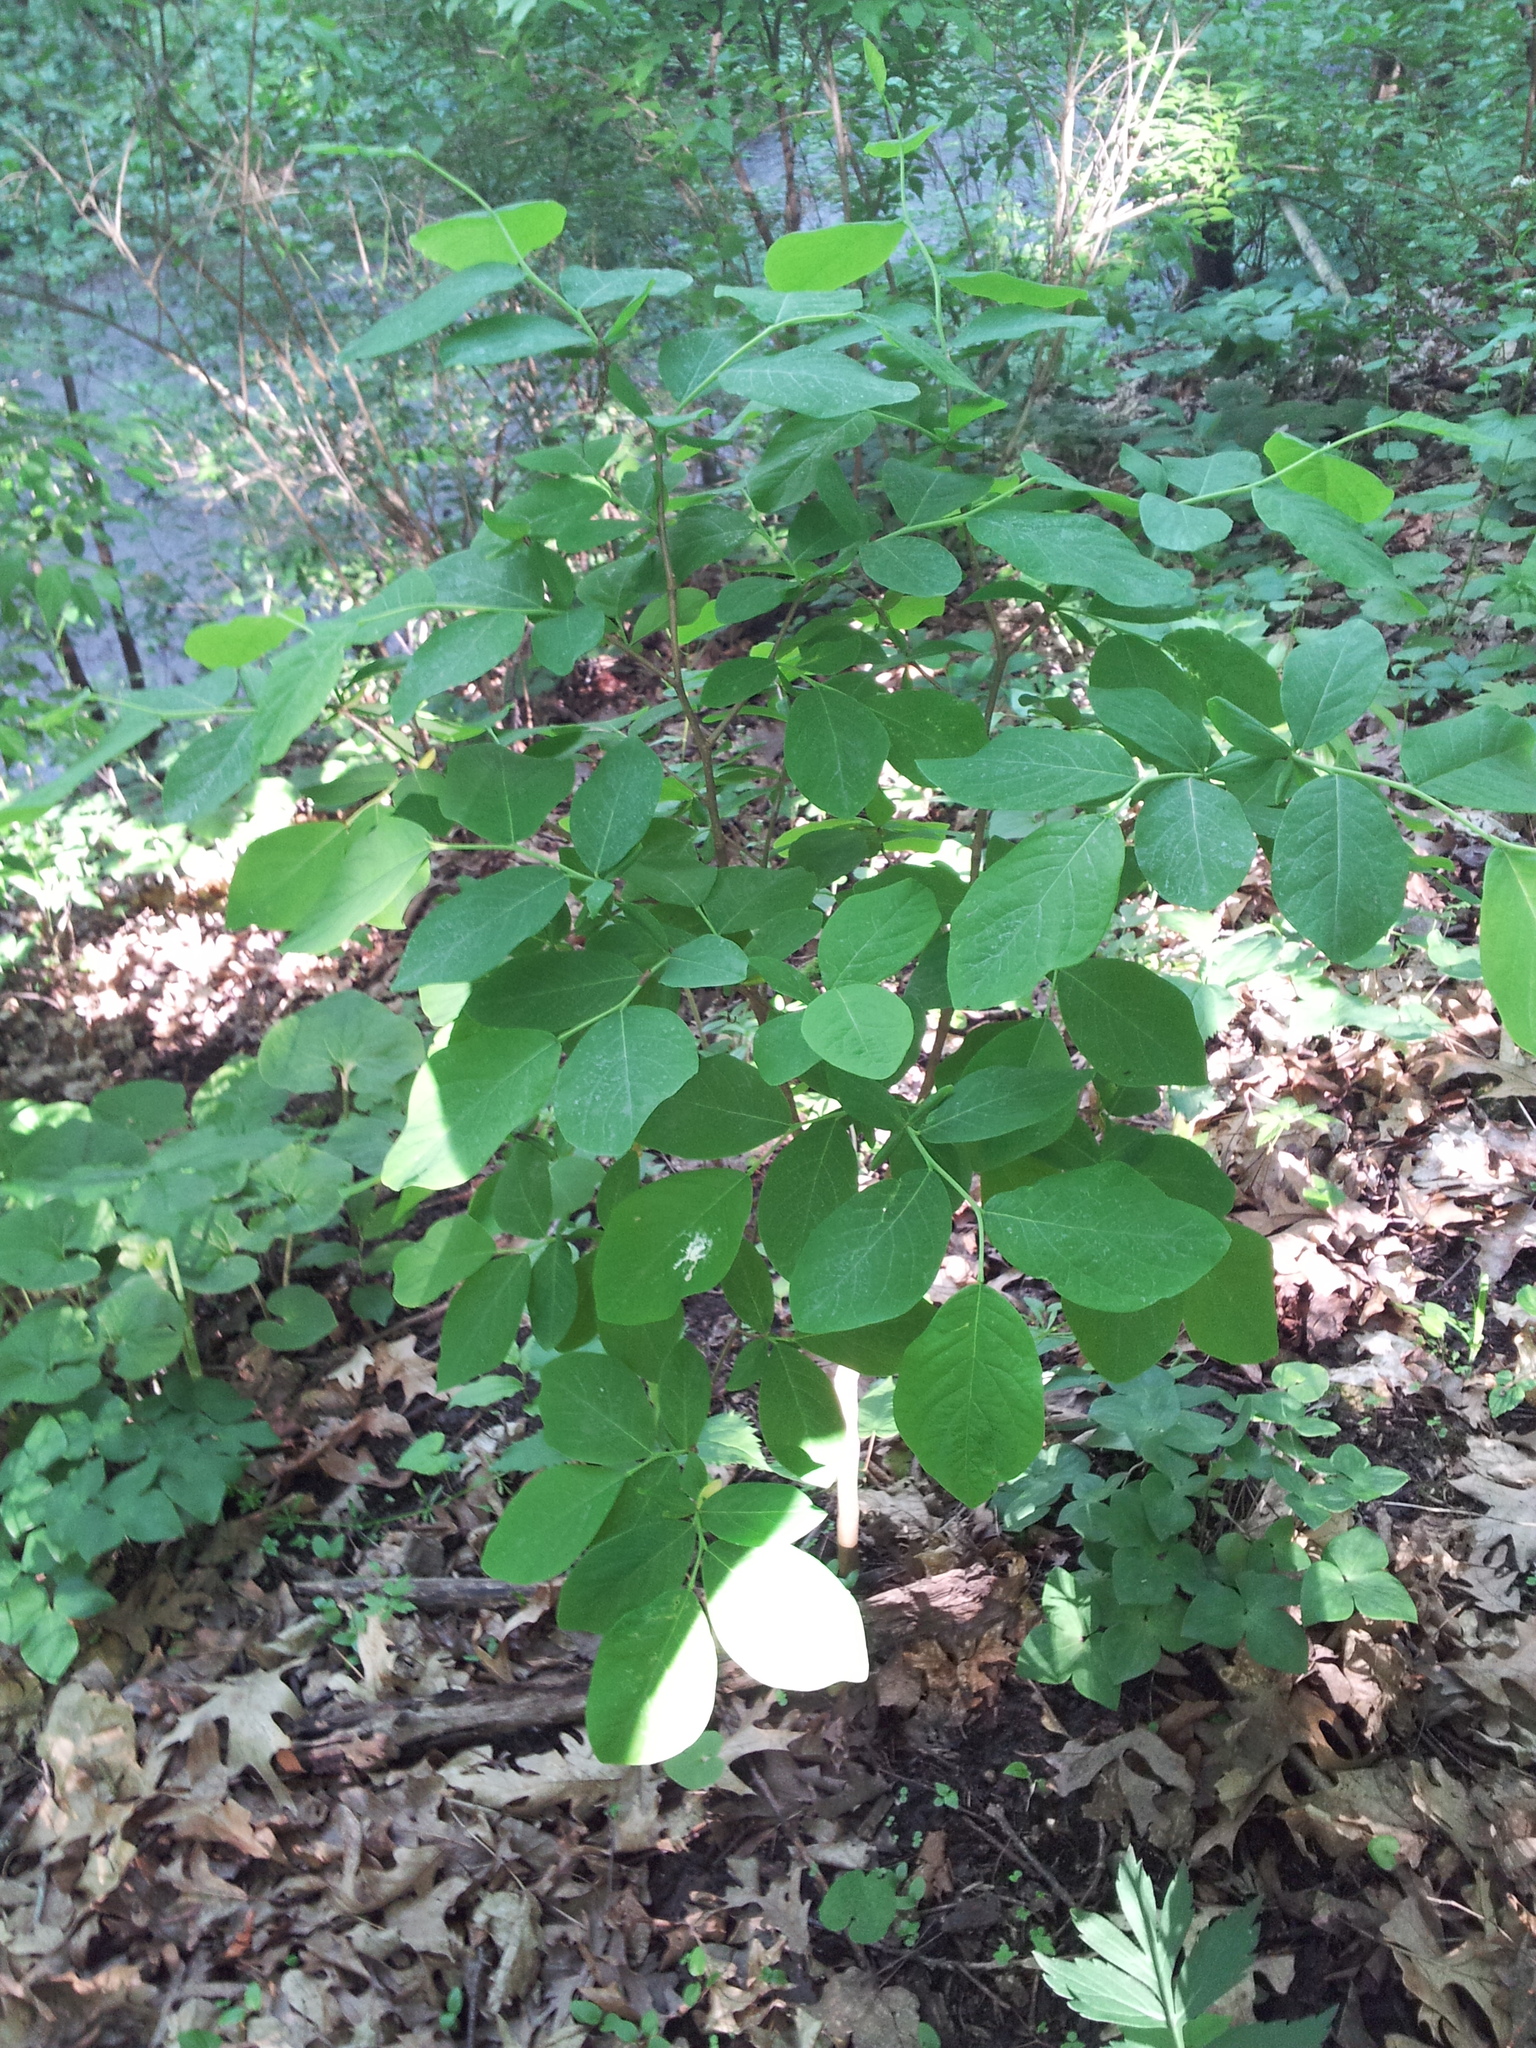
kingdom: Plantae
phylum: Tracheophyta
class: Magnoliopsida
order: Malvales
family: Thymelaeaceae
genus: Dirca
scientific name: Dirca palustris
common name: Leatherwood
